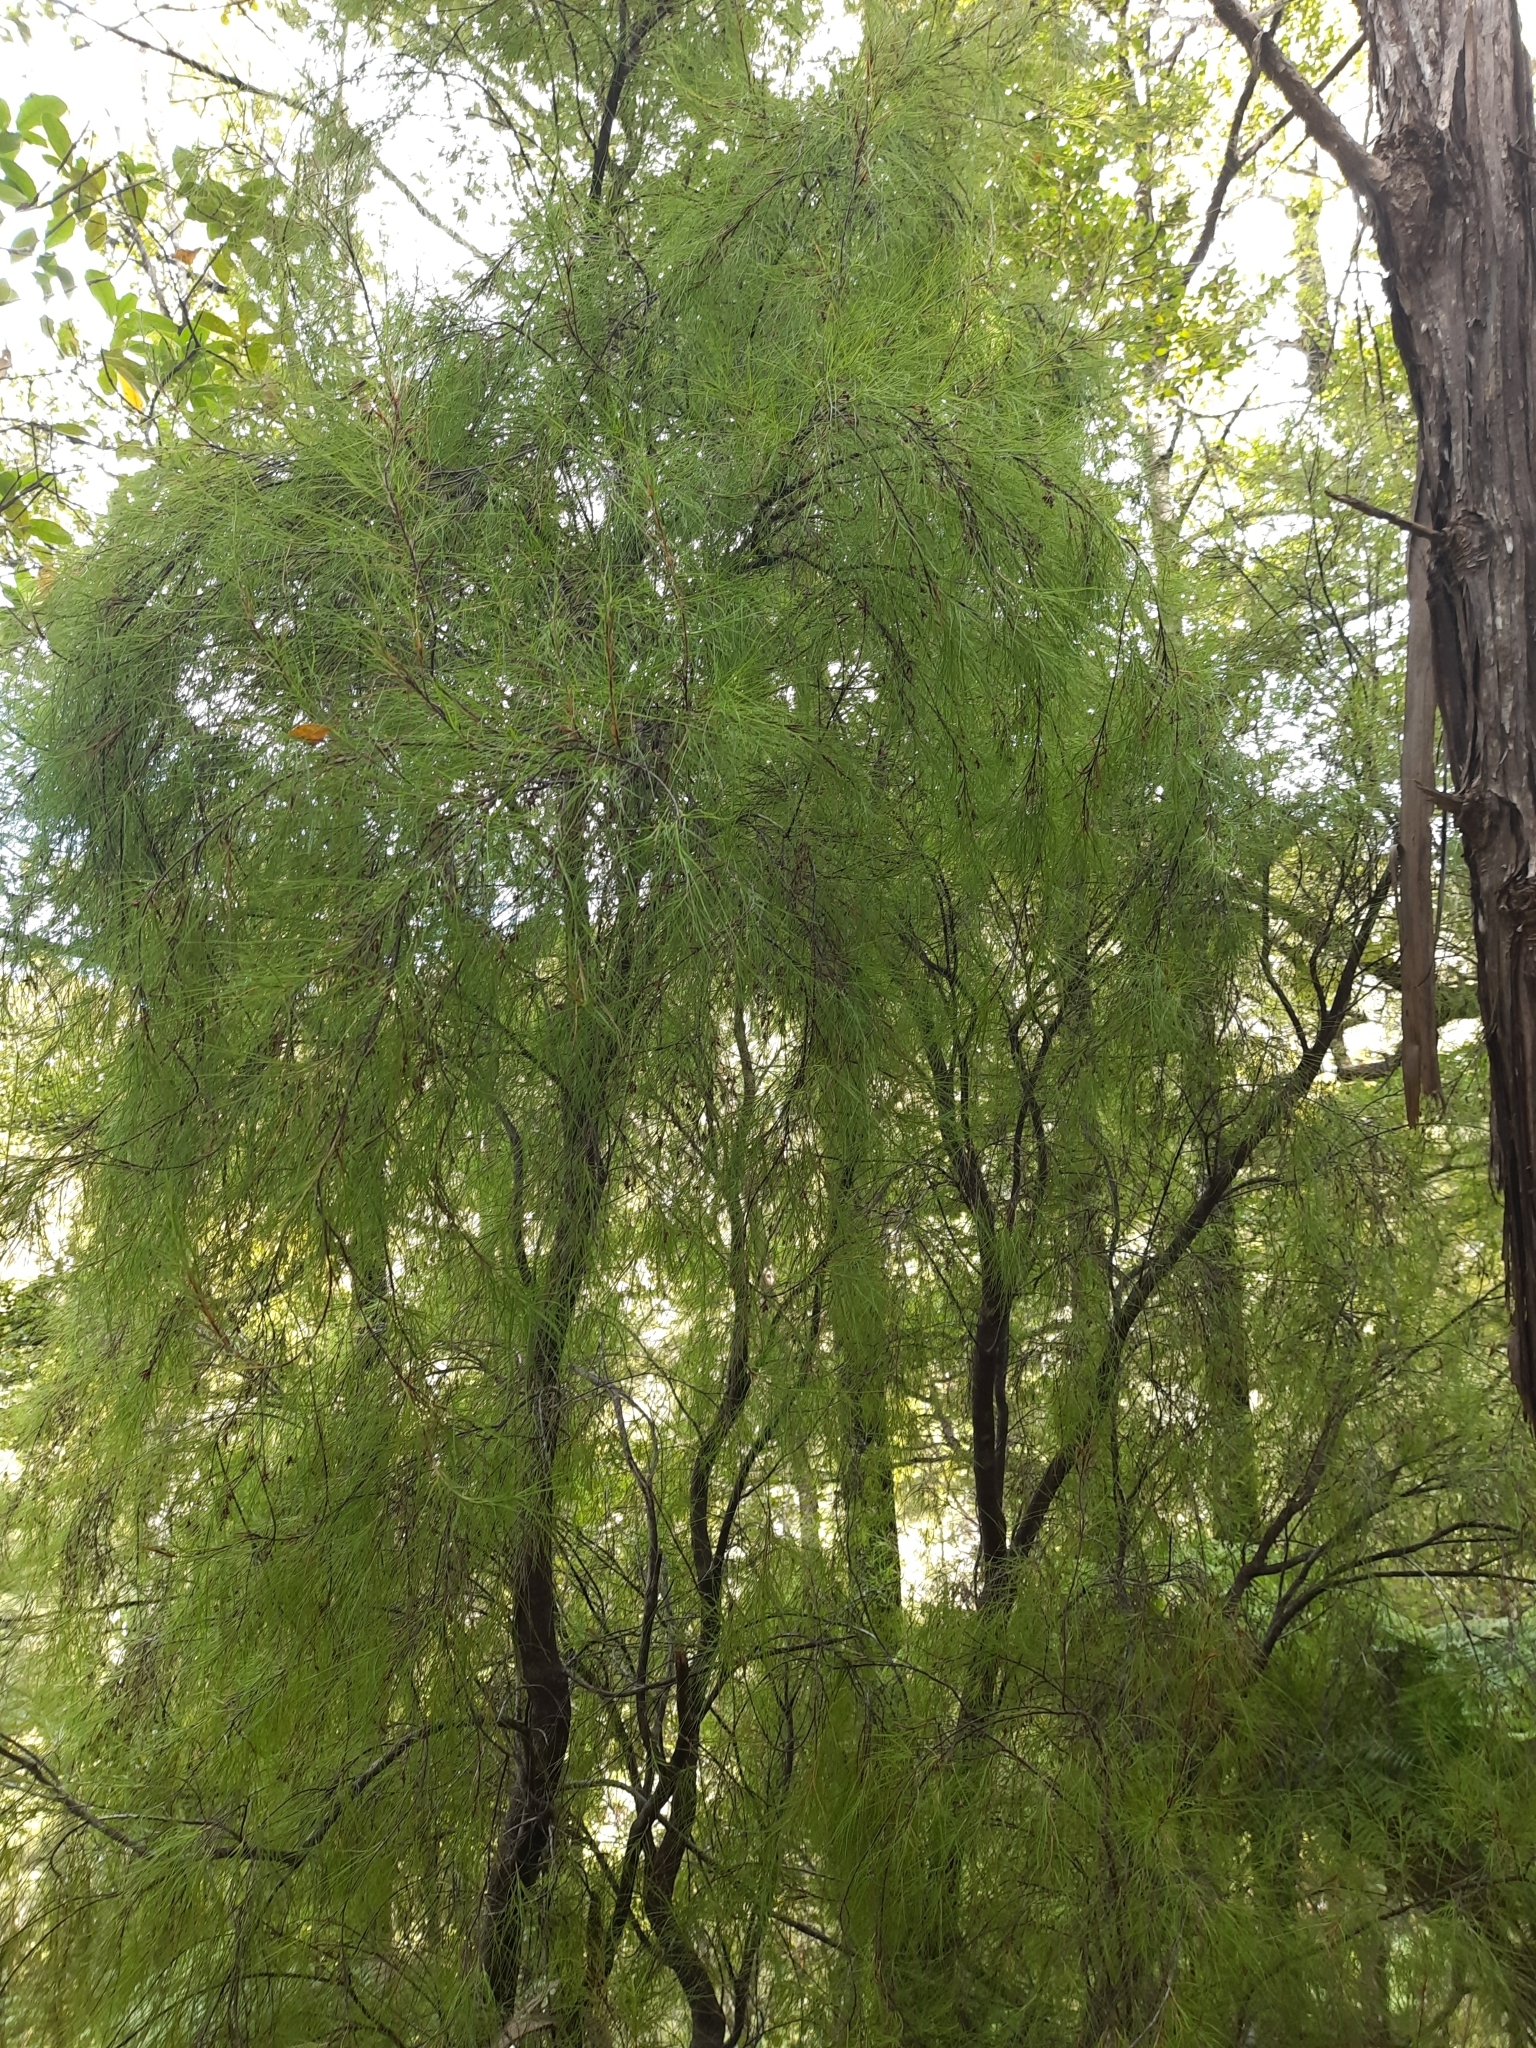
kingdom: Plantae
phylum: Tracheophyta
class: Magnoliopsida
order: Ericales
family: Ericaceae
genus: Dracophyllum
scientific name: Dracophyllum urvilleanum
